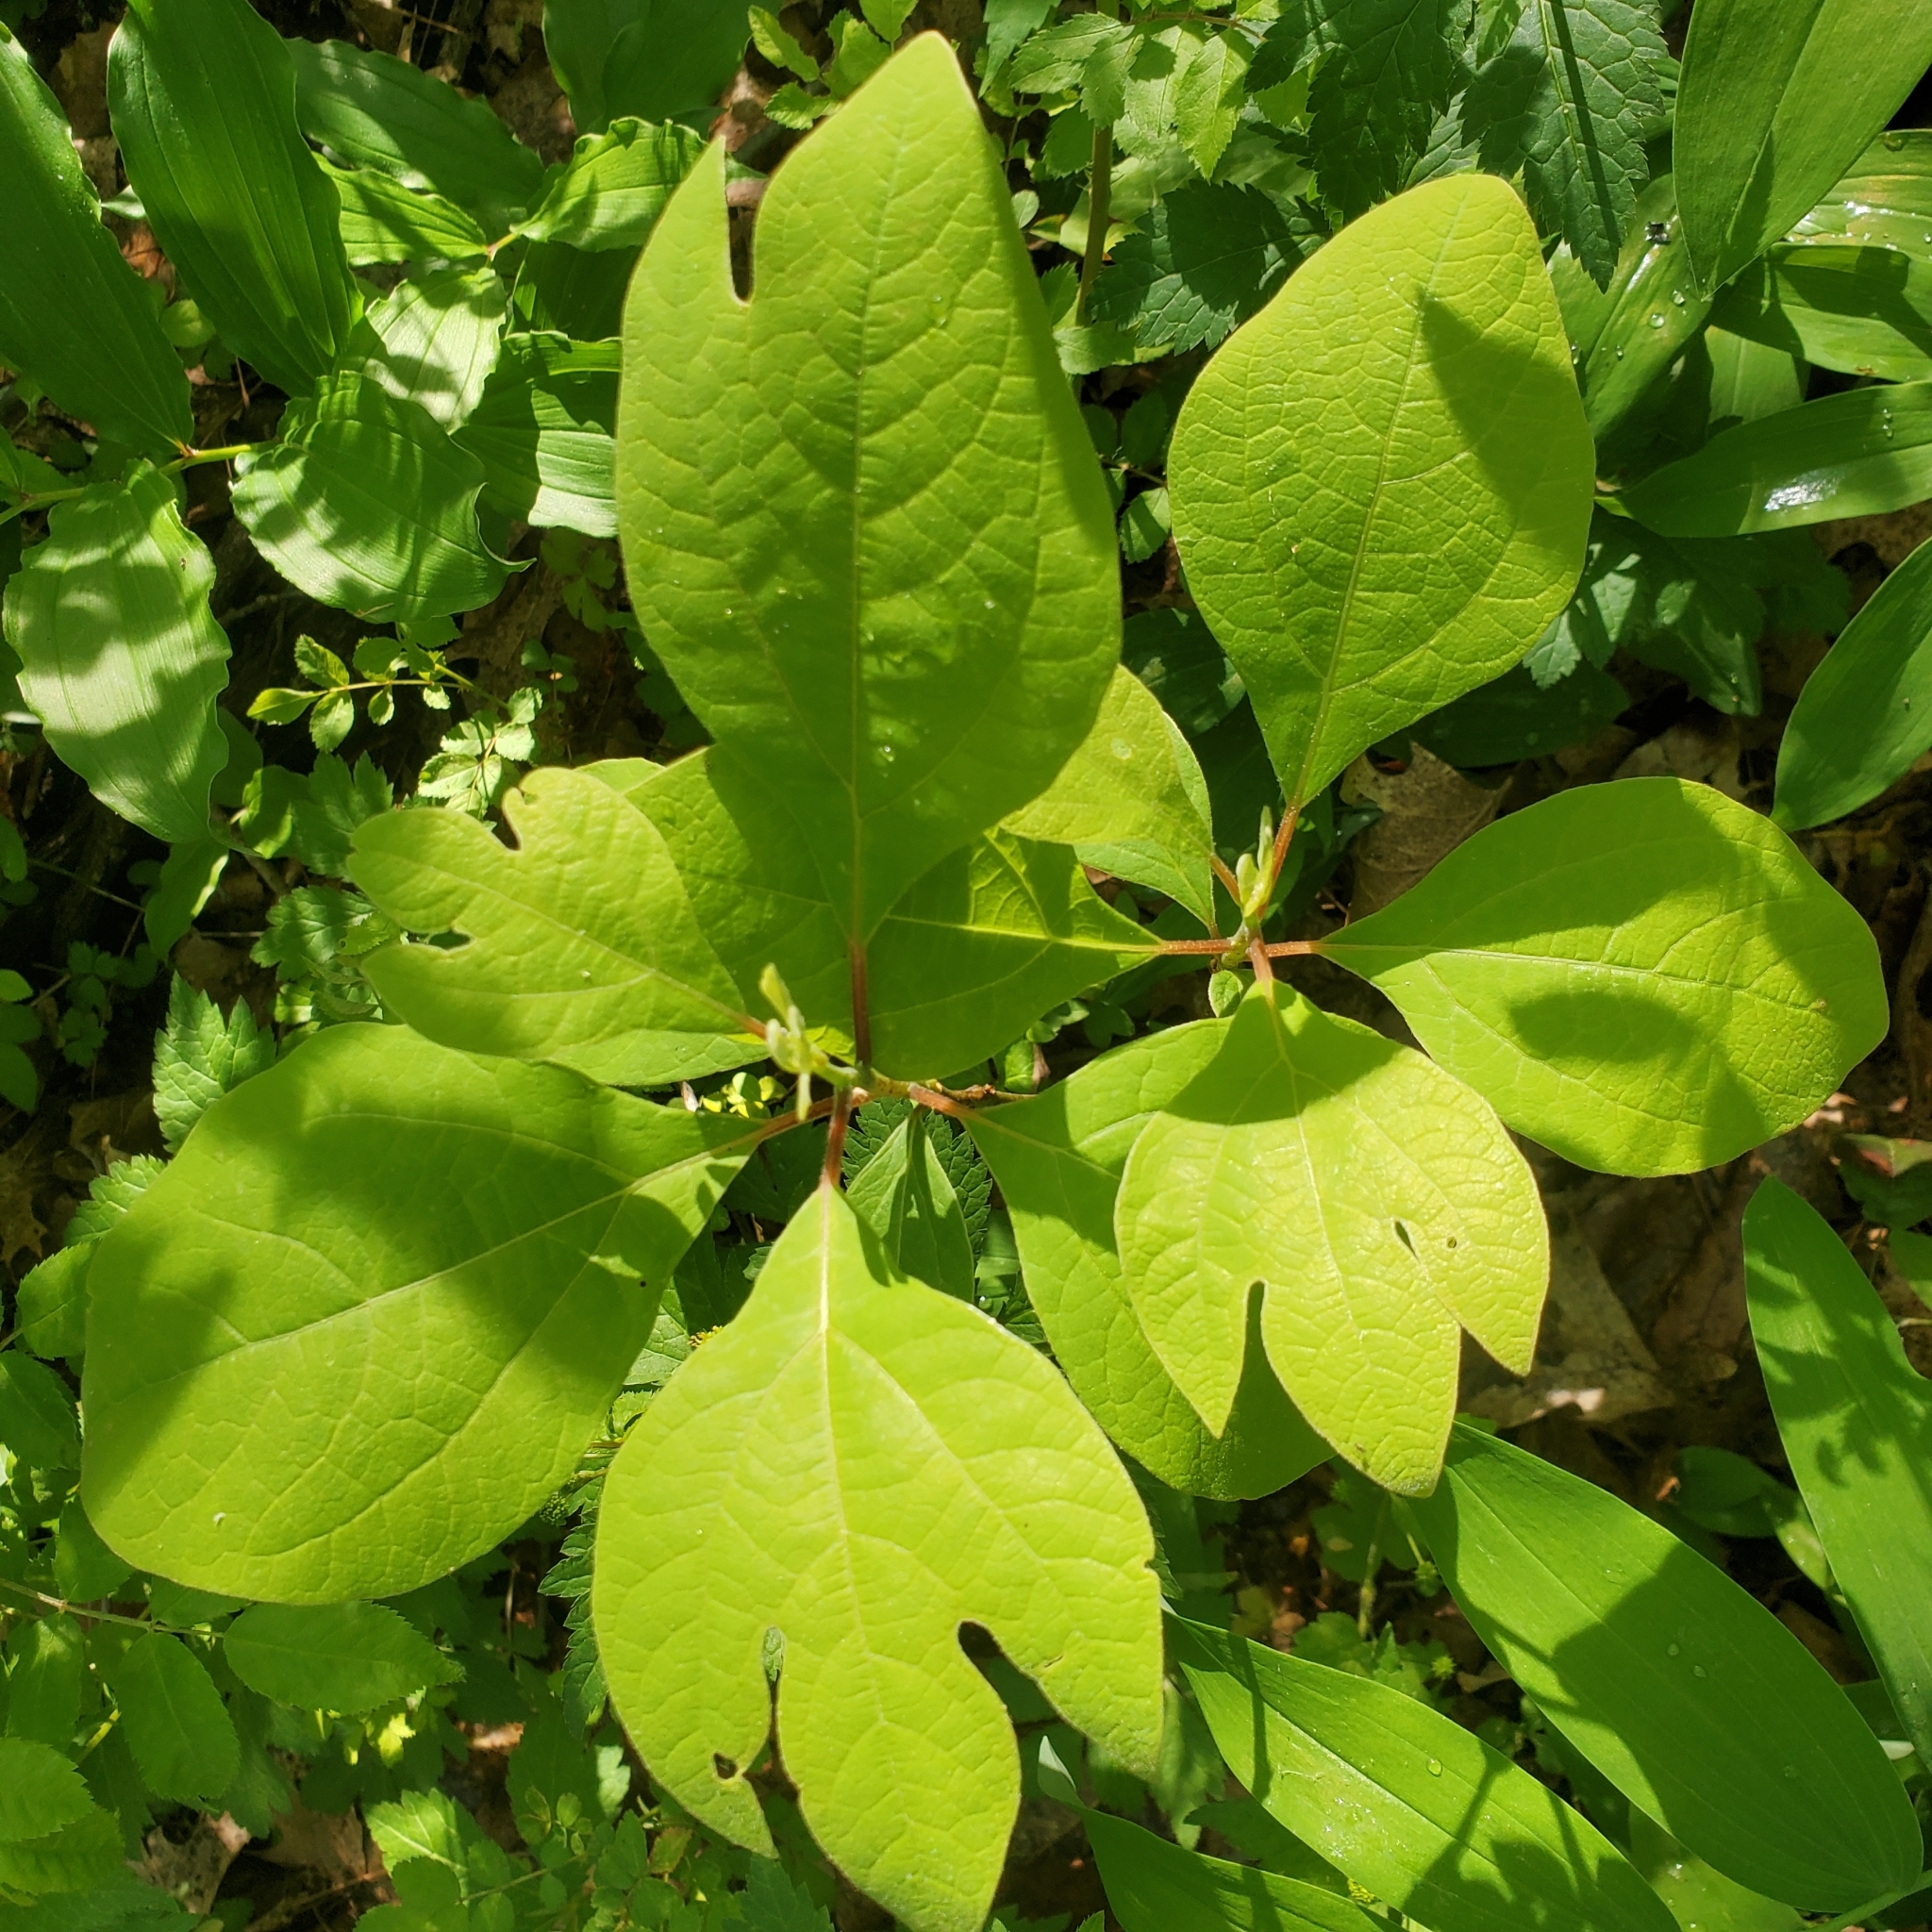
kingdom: Plantae
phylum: Tracheophyta
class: Magnoliopsida
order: Laurales
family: Lauraceae
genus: Sassafras
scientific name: Sassafras albidum
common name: Sassafras
